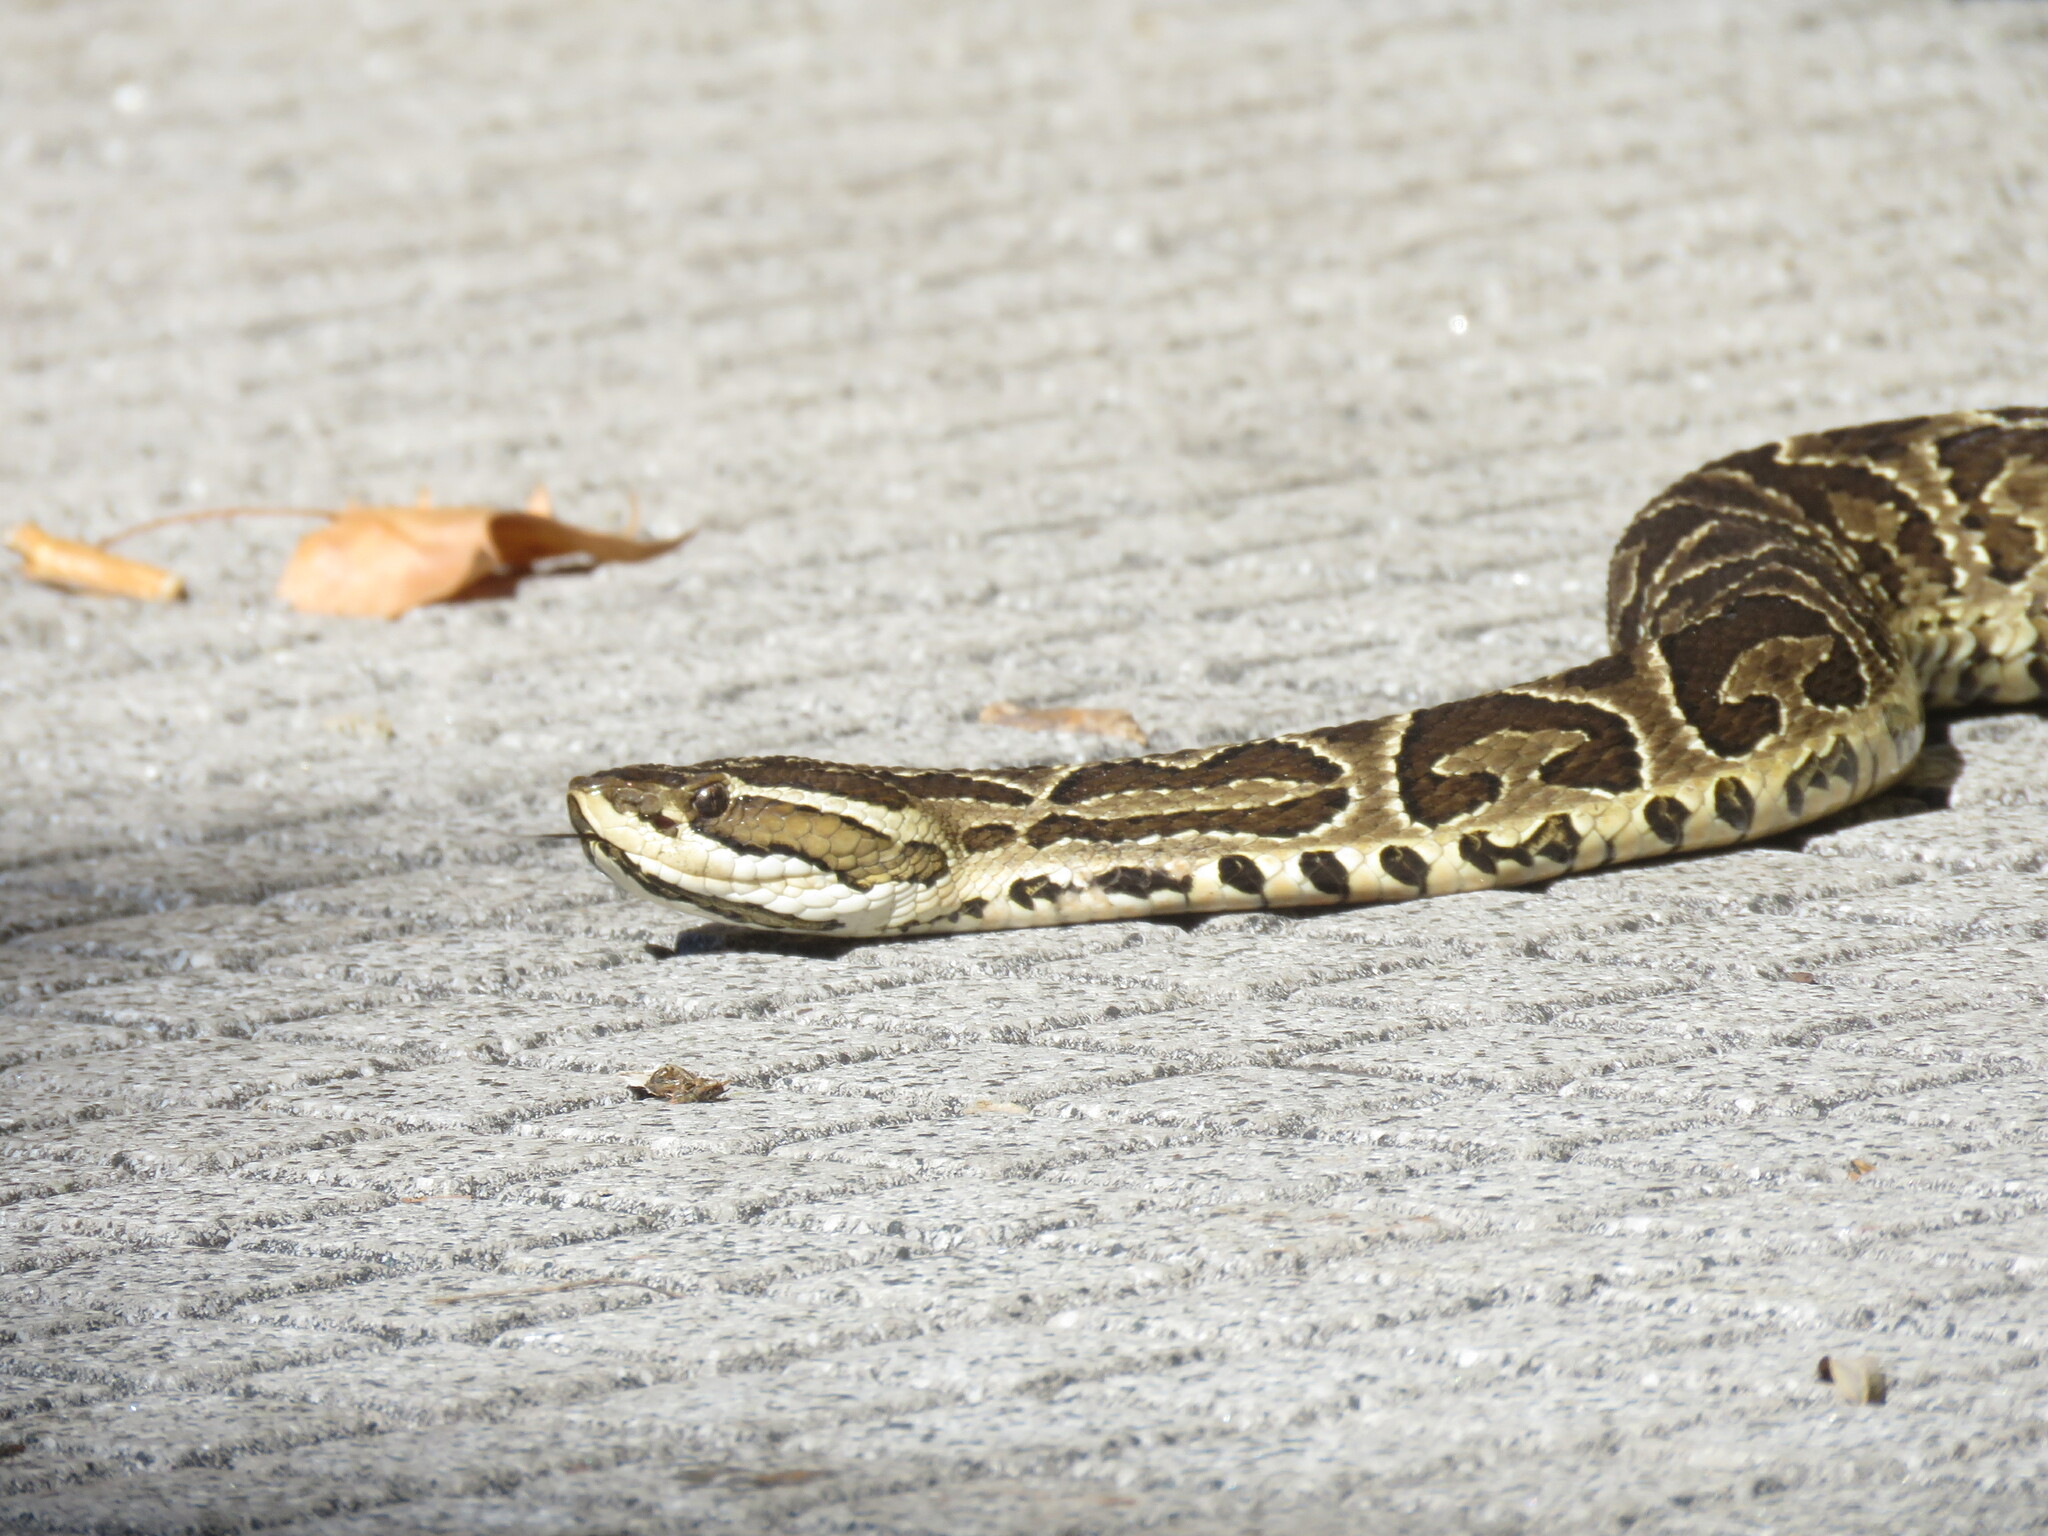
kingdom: Animalia
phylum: Chordata
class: Squamata
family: Viperidae
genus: Bothrops
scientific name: Bothrops alternatus
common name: Urutu
